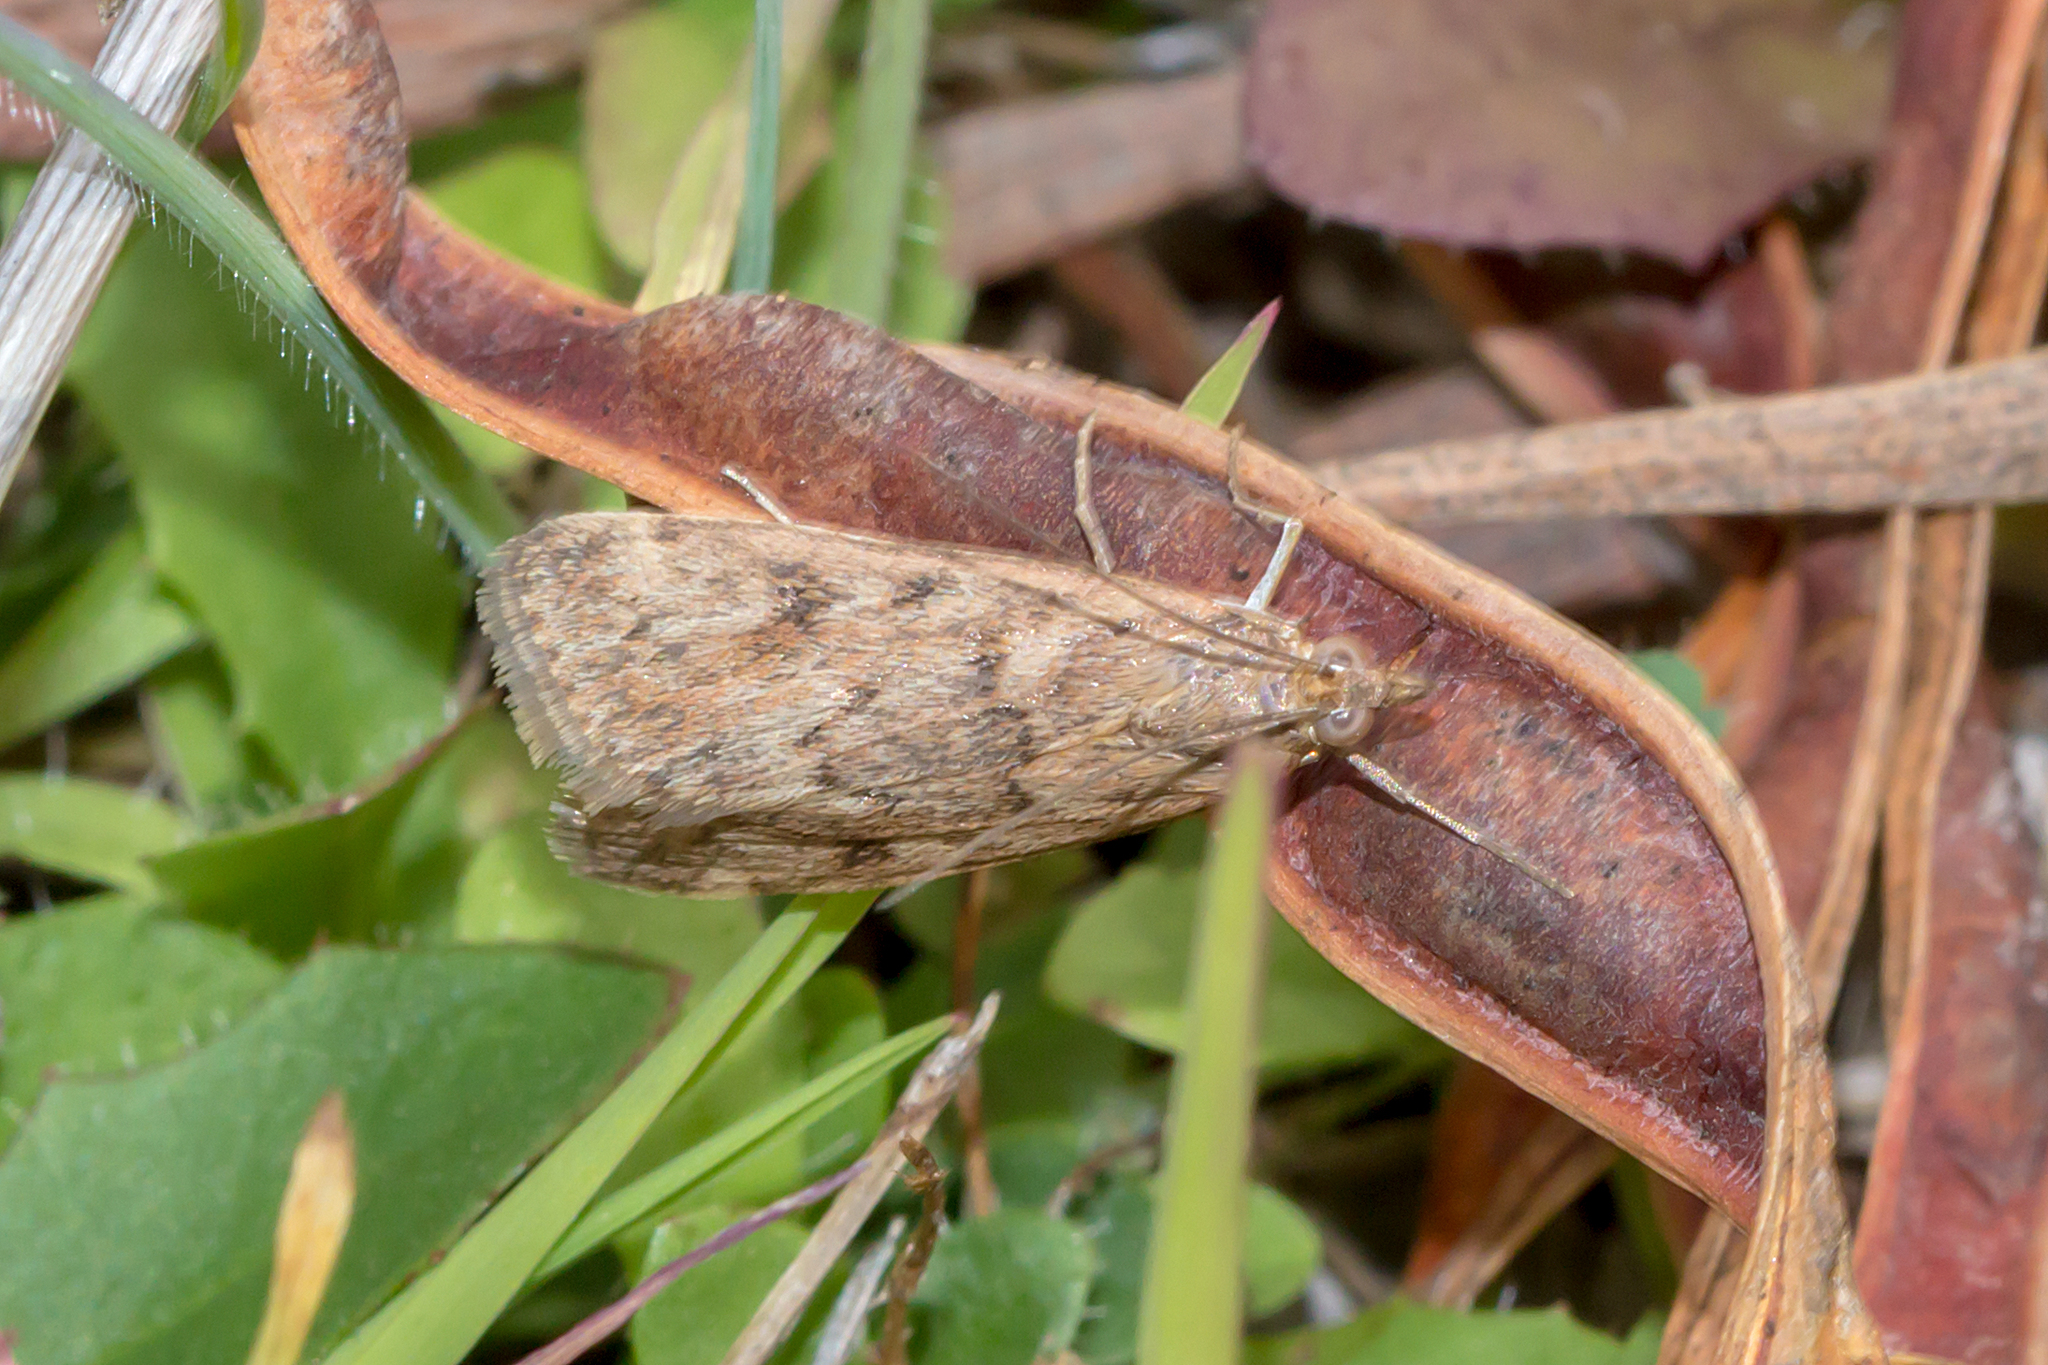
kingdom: Animalia
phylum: Arthropoda
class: Insecta
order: Lepidoptera
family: Crambidae
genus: Achyra
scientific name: Achyra affinitalis
